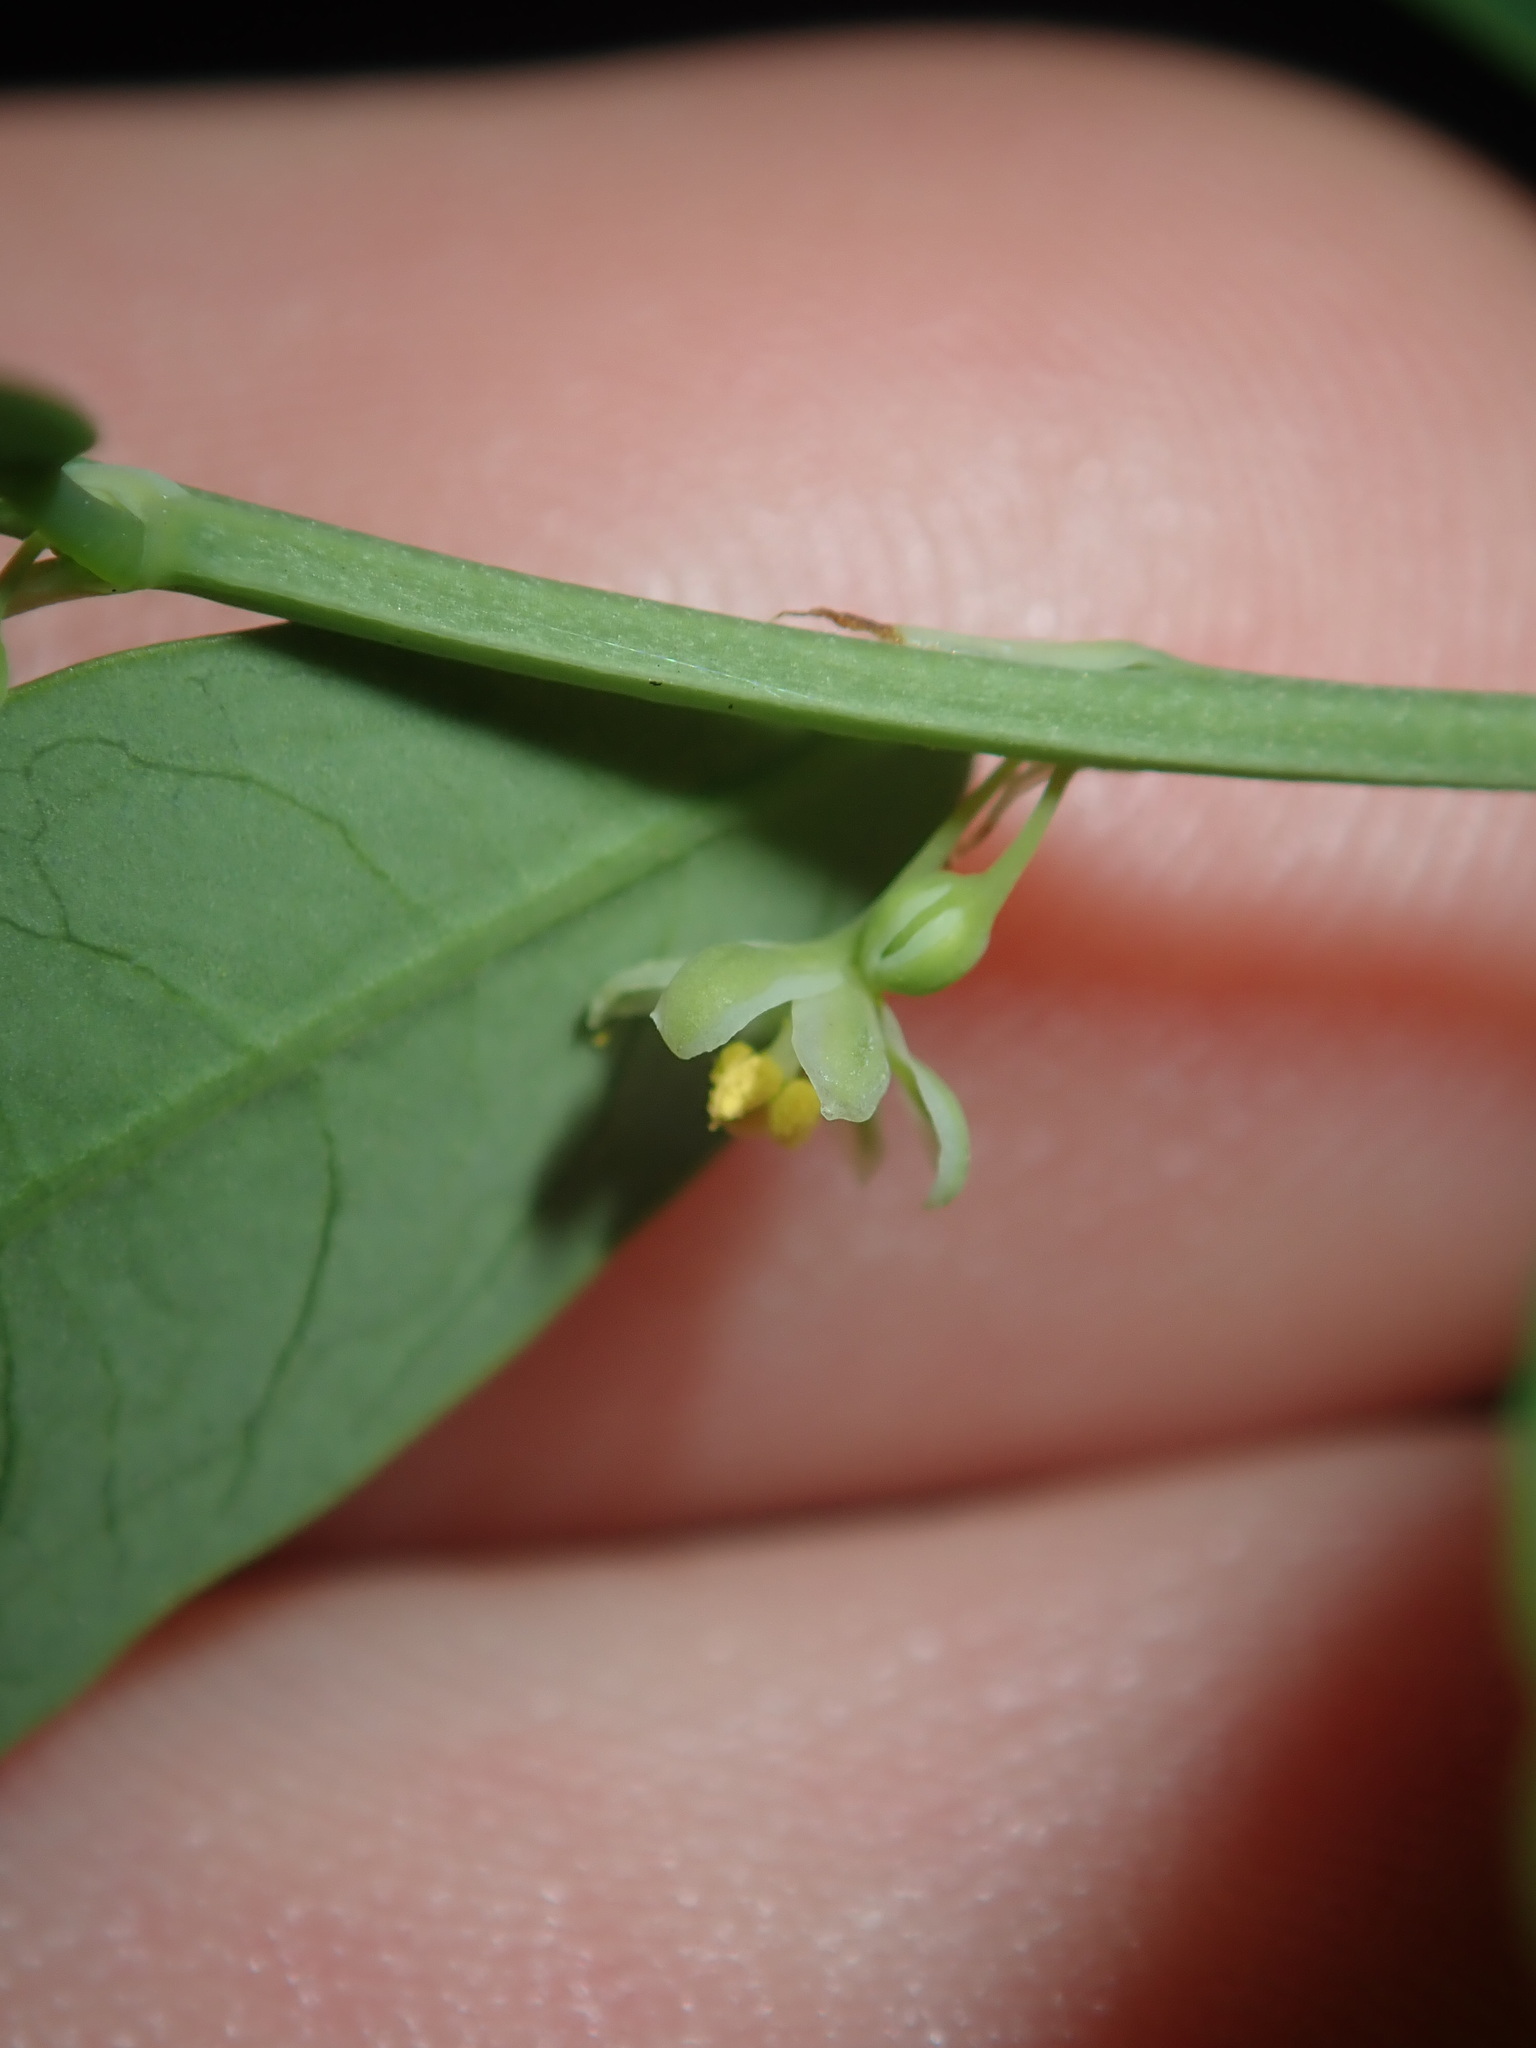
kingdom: Plantae
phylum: Tracheophyta
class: Magnoliopsida
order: Malpighiales
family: Phyllanthaceae
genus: Phyllanthus
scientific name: Phyllanthus gunnii
